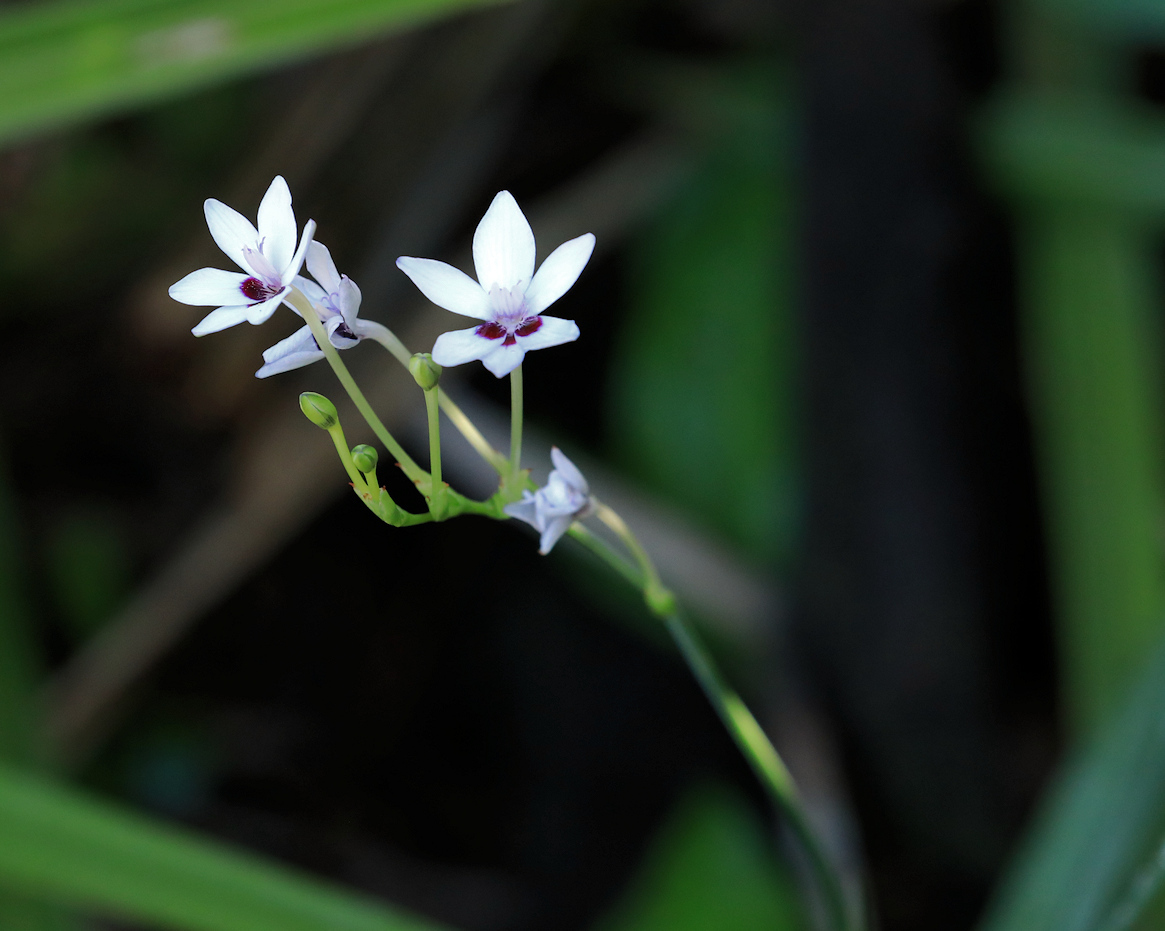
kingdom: Plantae
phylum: Tracheophyta
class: Liliopsida
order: Asparagales
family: Iridaceae
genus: Freesia
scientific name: Freesia laxa
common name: False freesia
